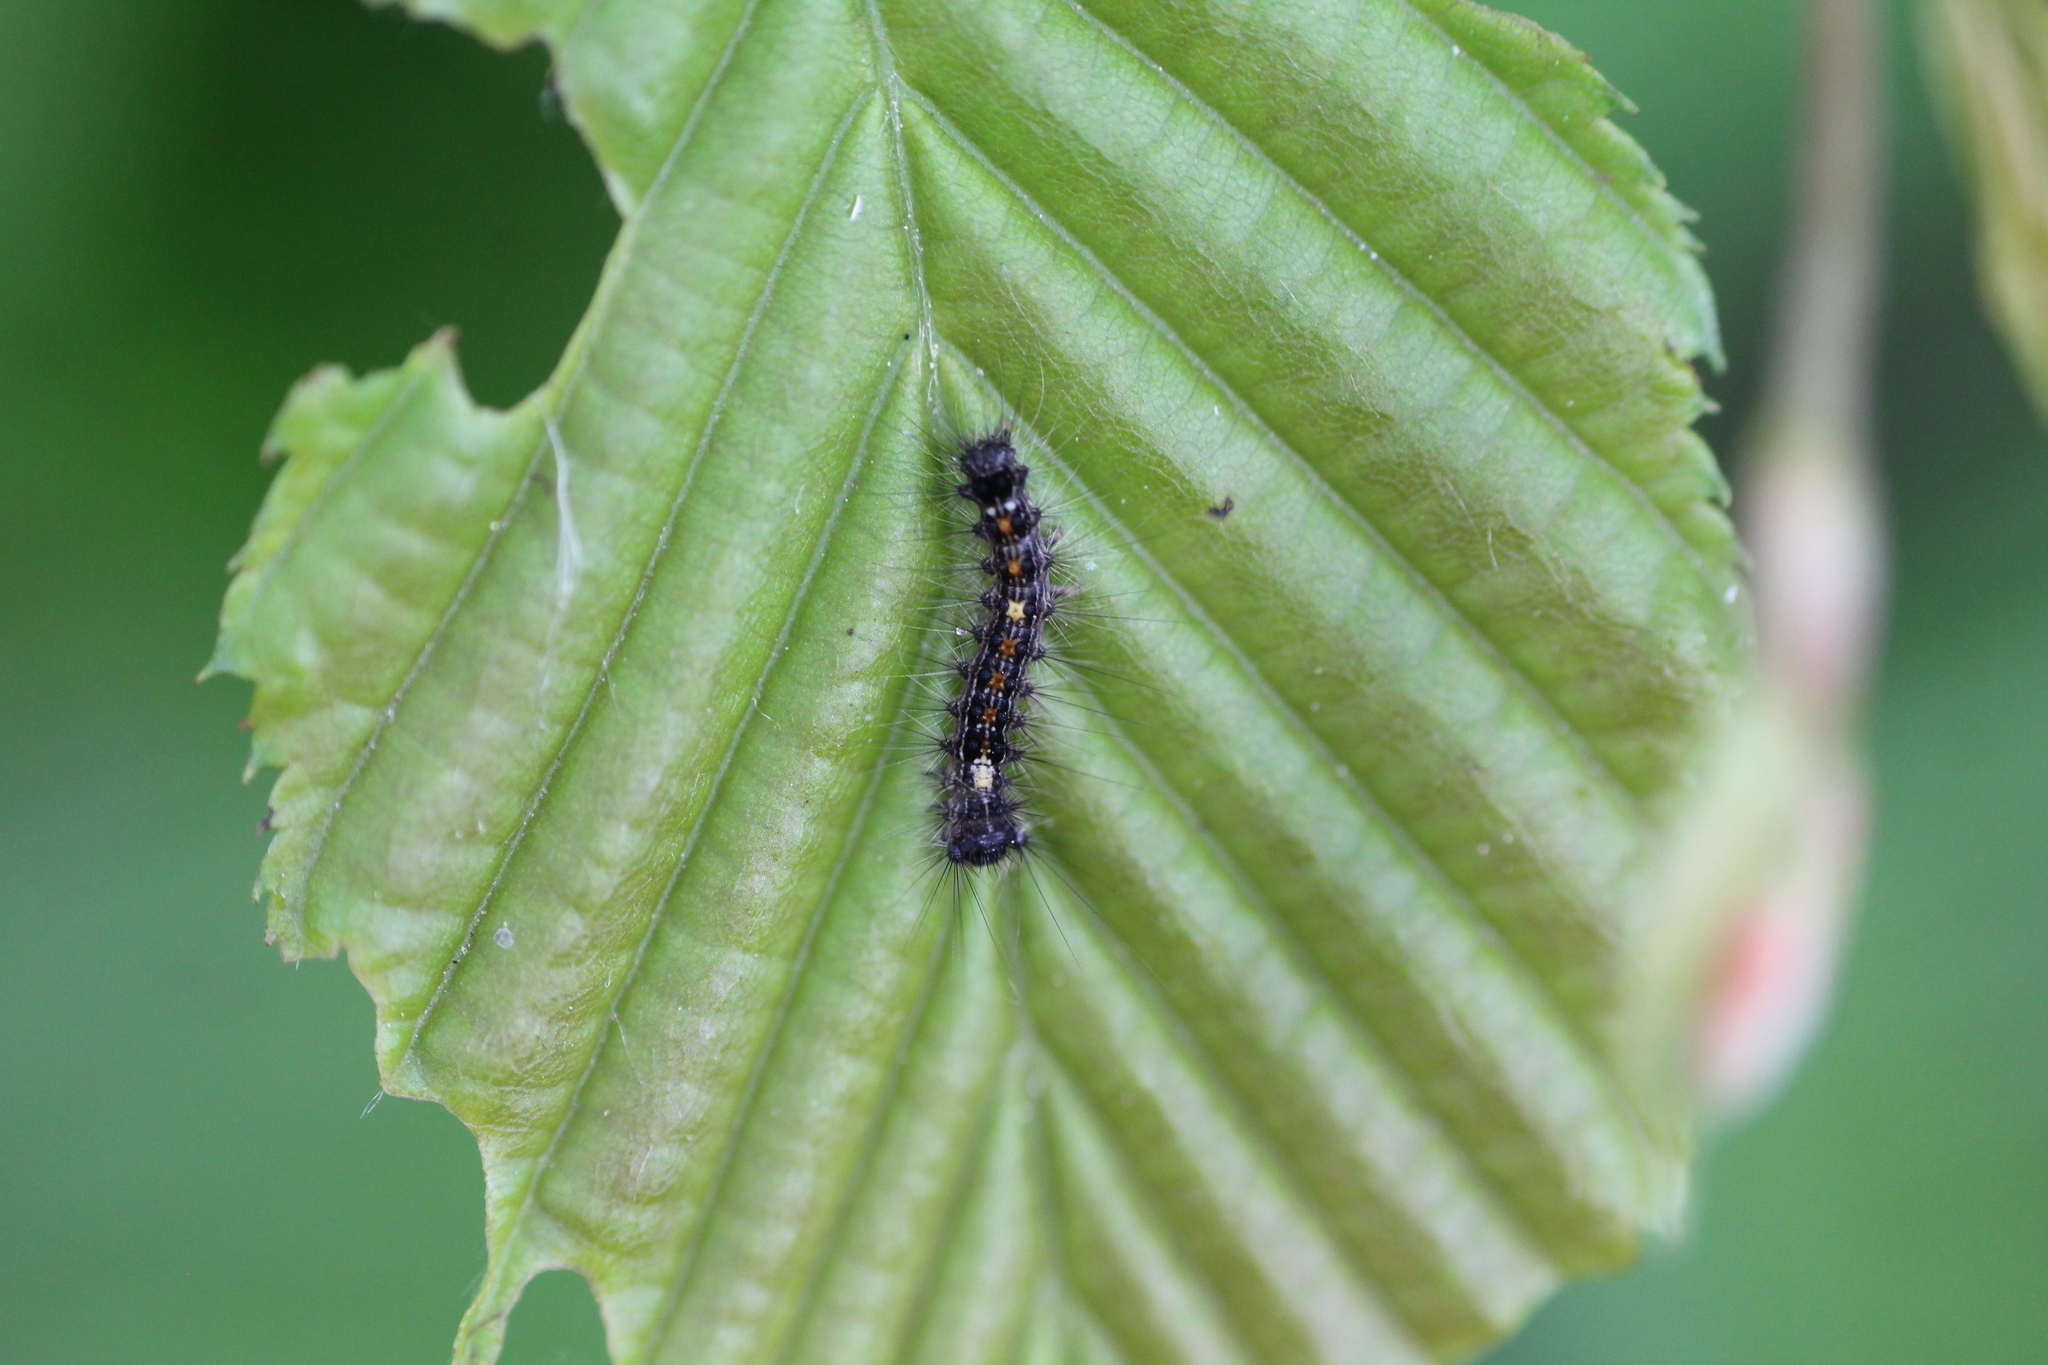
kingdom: Animalia
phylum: Arthropoda
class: Insecta
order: Lepidoptera
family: Erebidae
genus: Lymantria
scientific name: Lymantria dispar
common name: Gypsy moth
